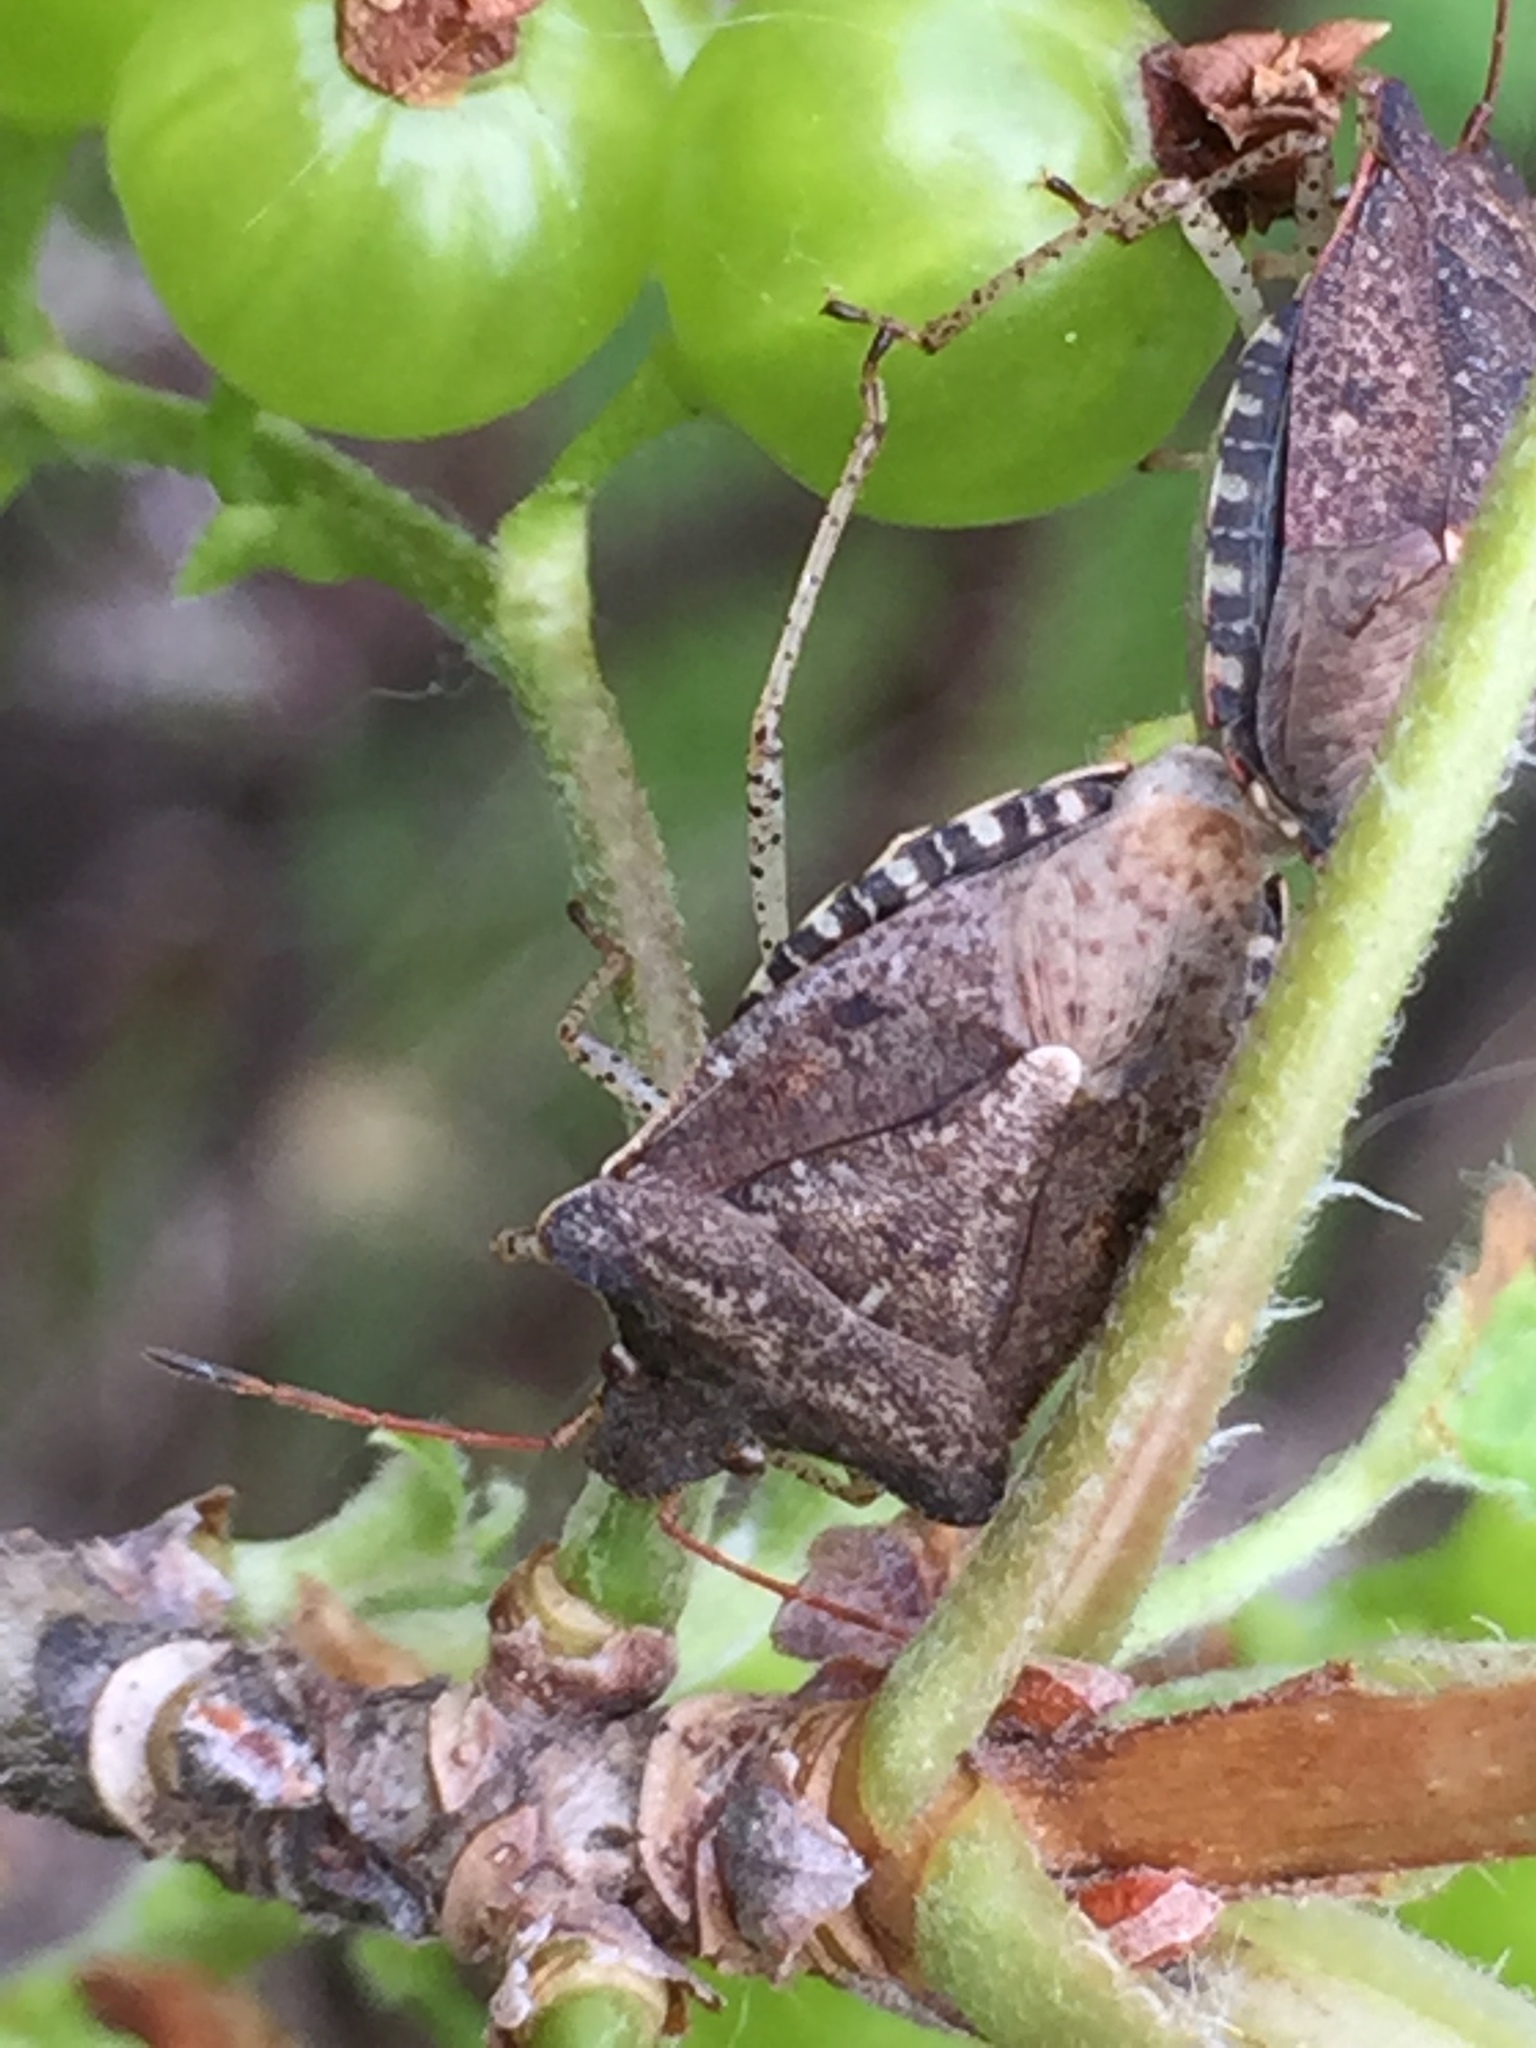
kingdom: Animalia
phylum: Arthropoda
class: Insecta
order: Hemiptera
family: Pentatomidae
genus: Euschistus
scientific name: Euschistus tristigmus
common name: Dusky stink bug
